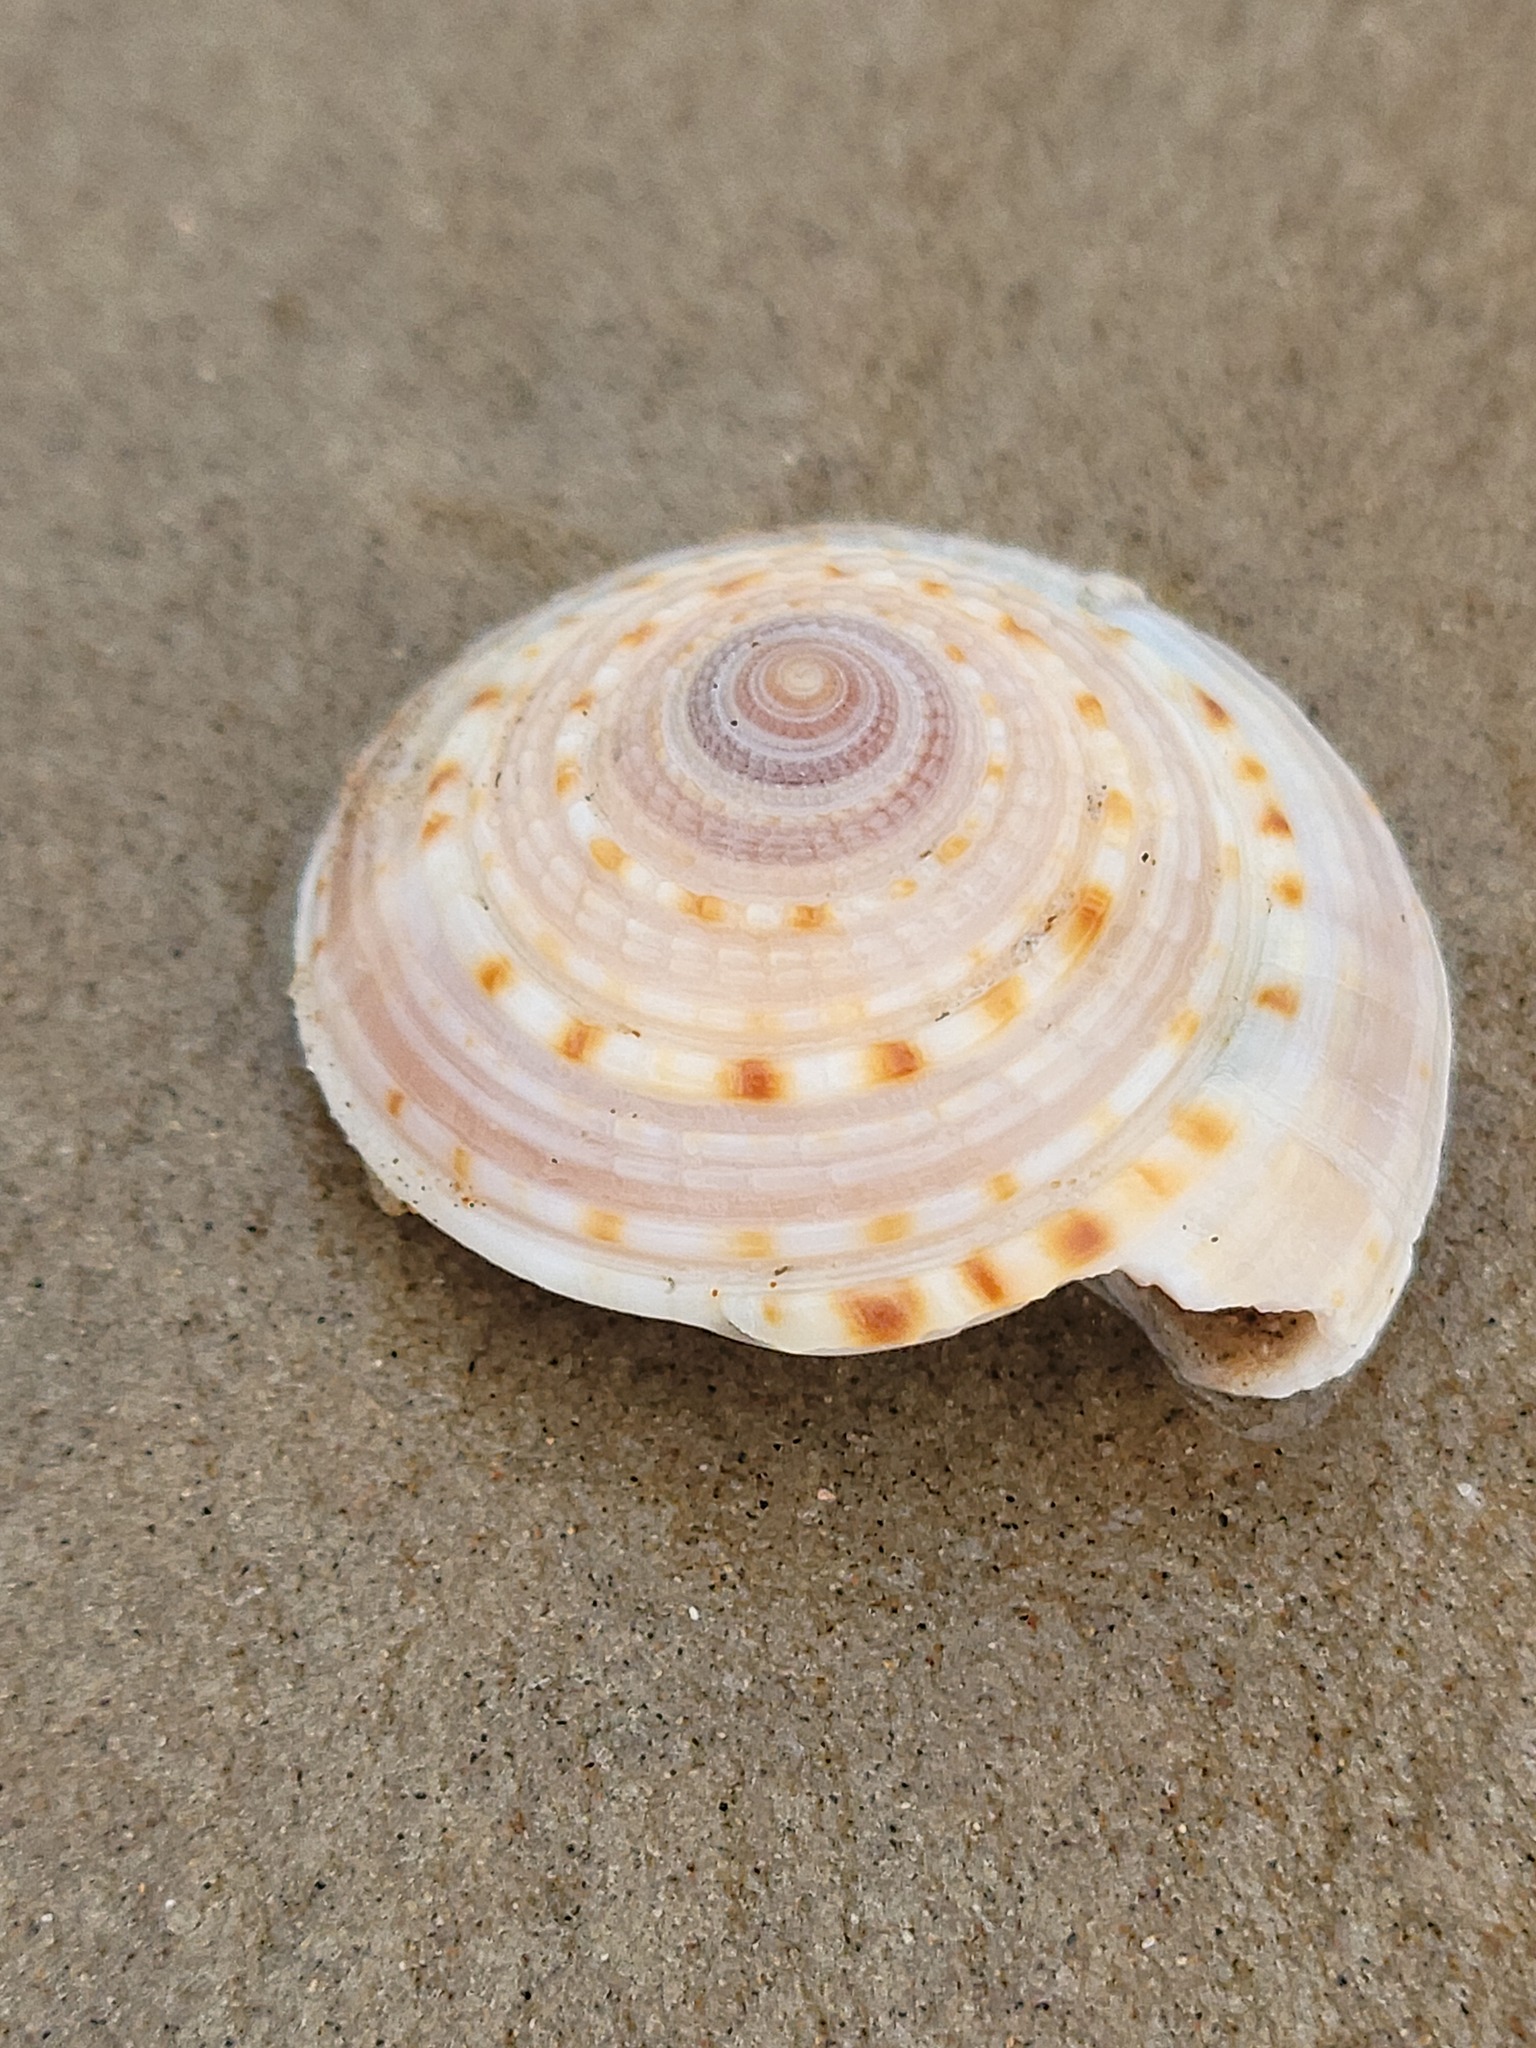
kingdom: Animalia
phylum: Mollusca
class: Gastropoda
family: Architectonicidae
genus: Architectonica
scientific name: Architectonica nobilis
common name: Common sundial
